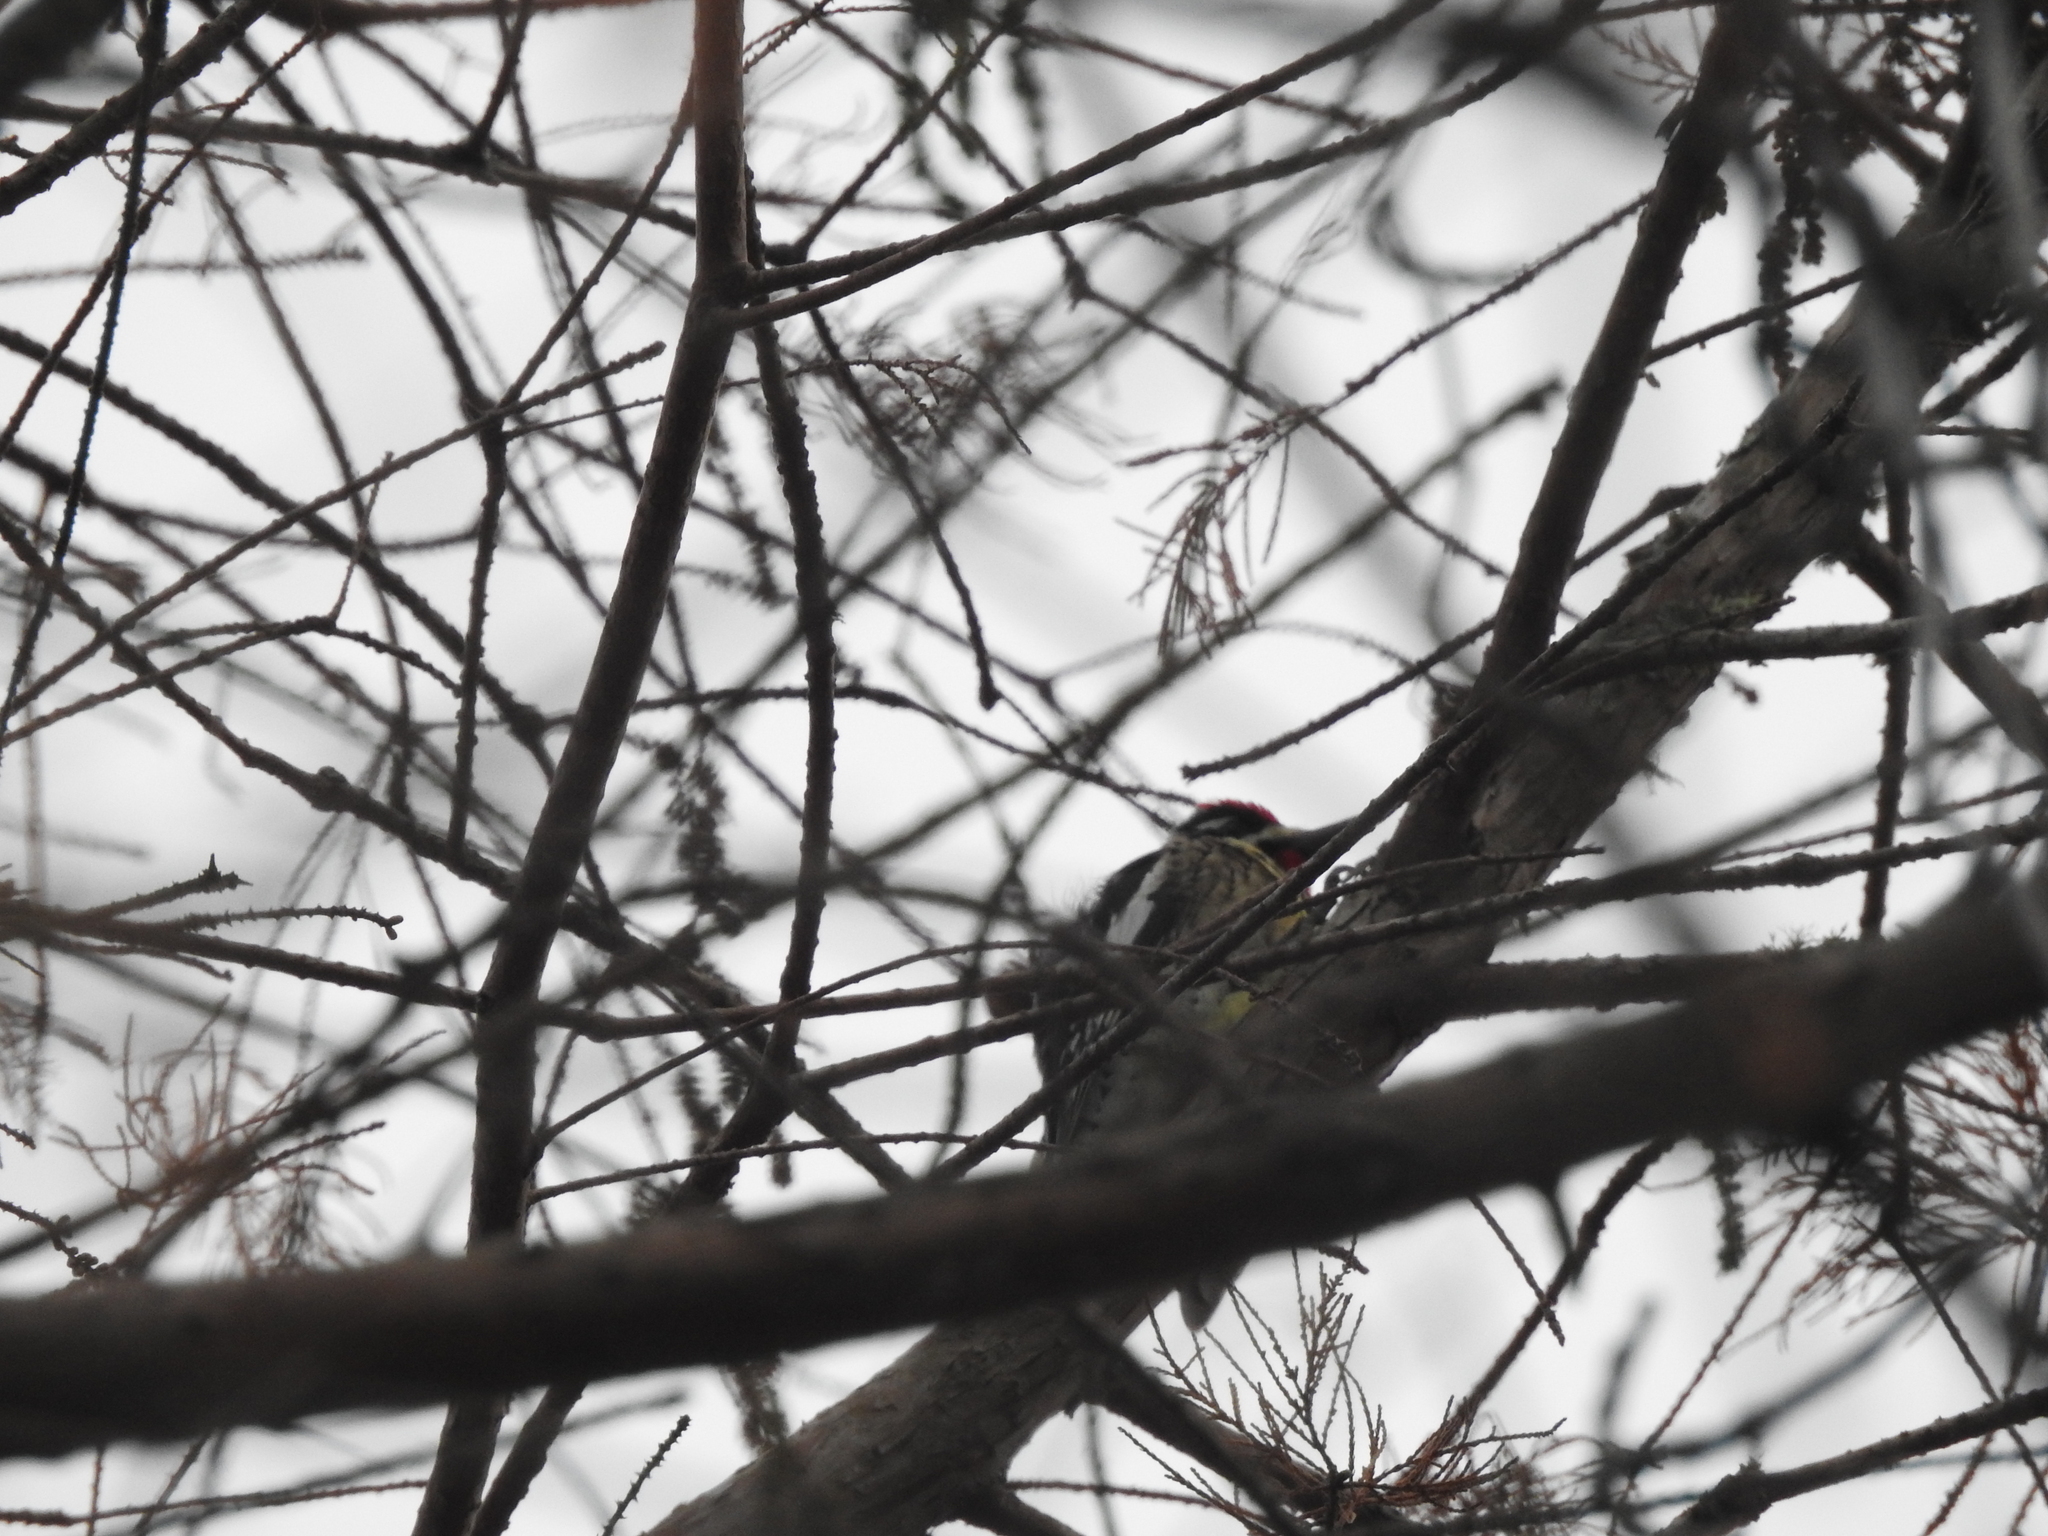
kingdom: Animalia
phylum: Chordata
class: Aves
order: Piciformes
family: Picidae
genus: Sphyrapicus
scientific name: Sphyrapicus varius
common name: Yellow-bellied sapsucker
